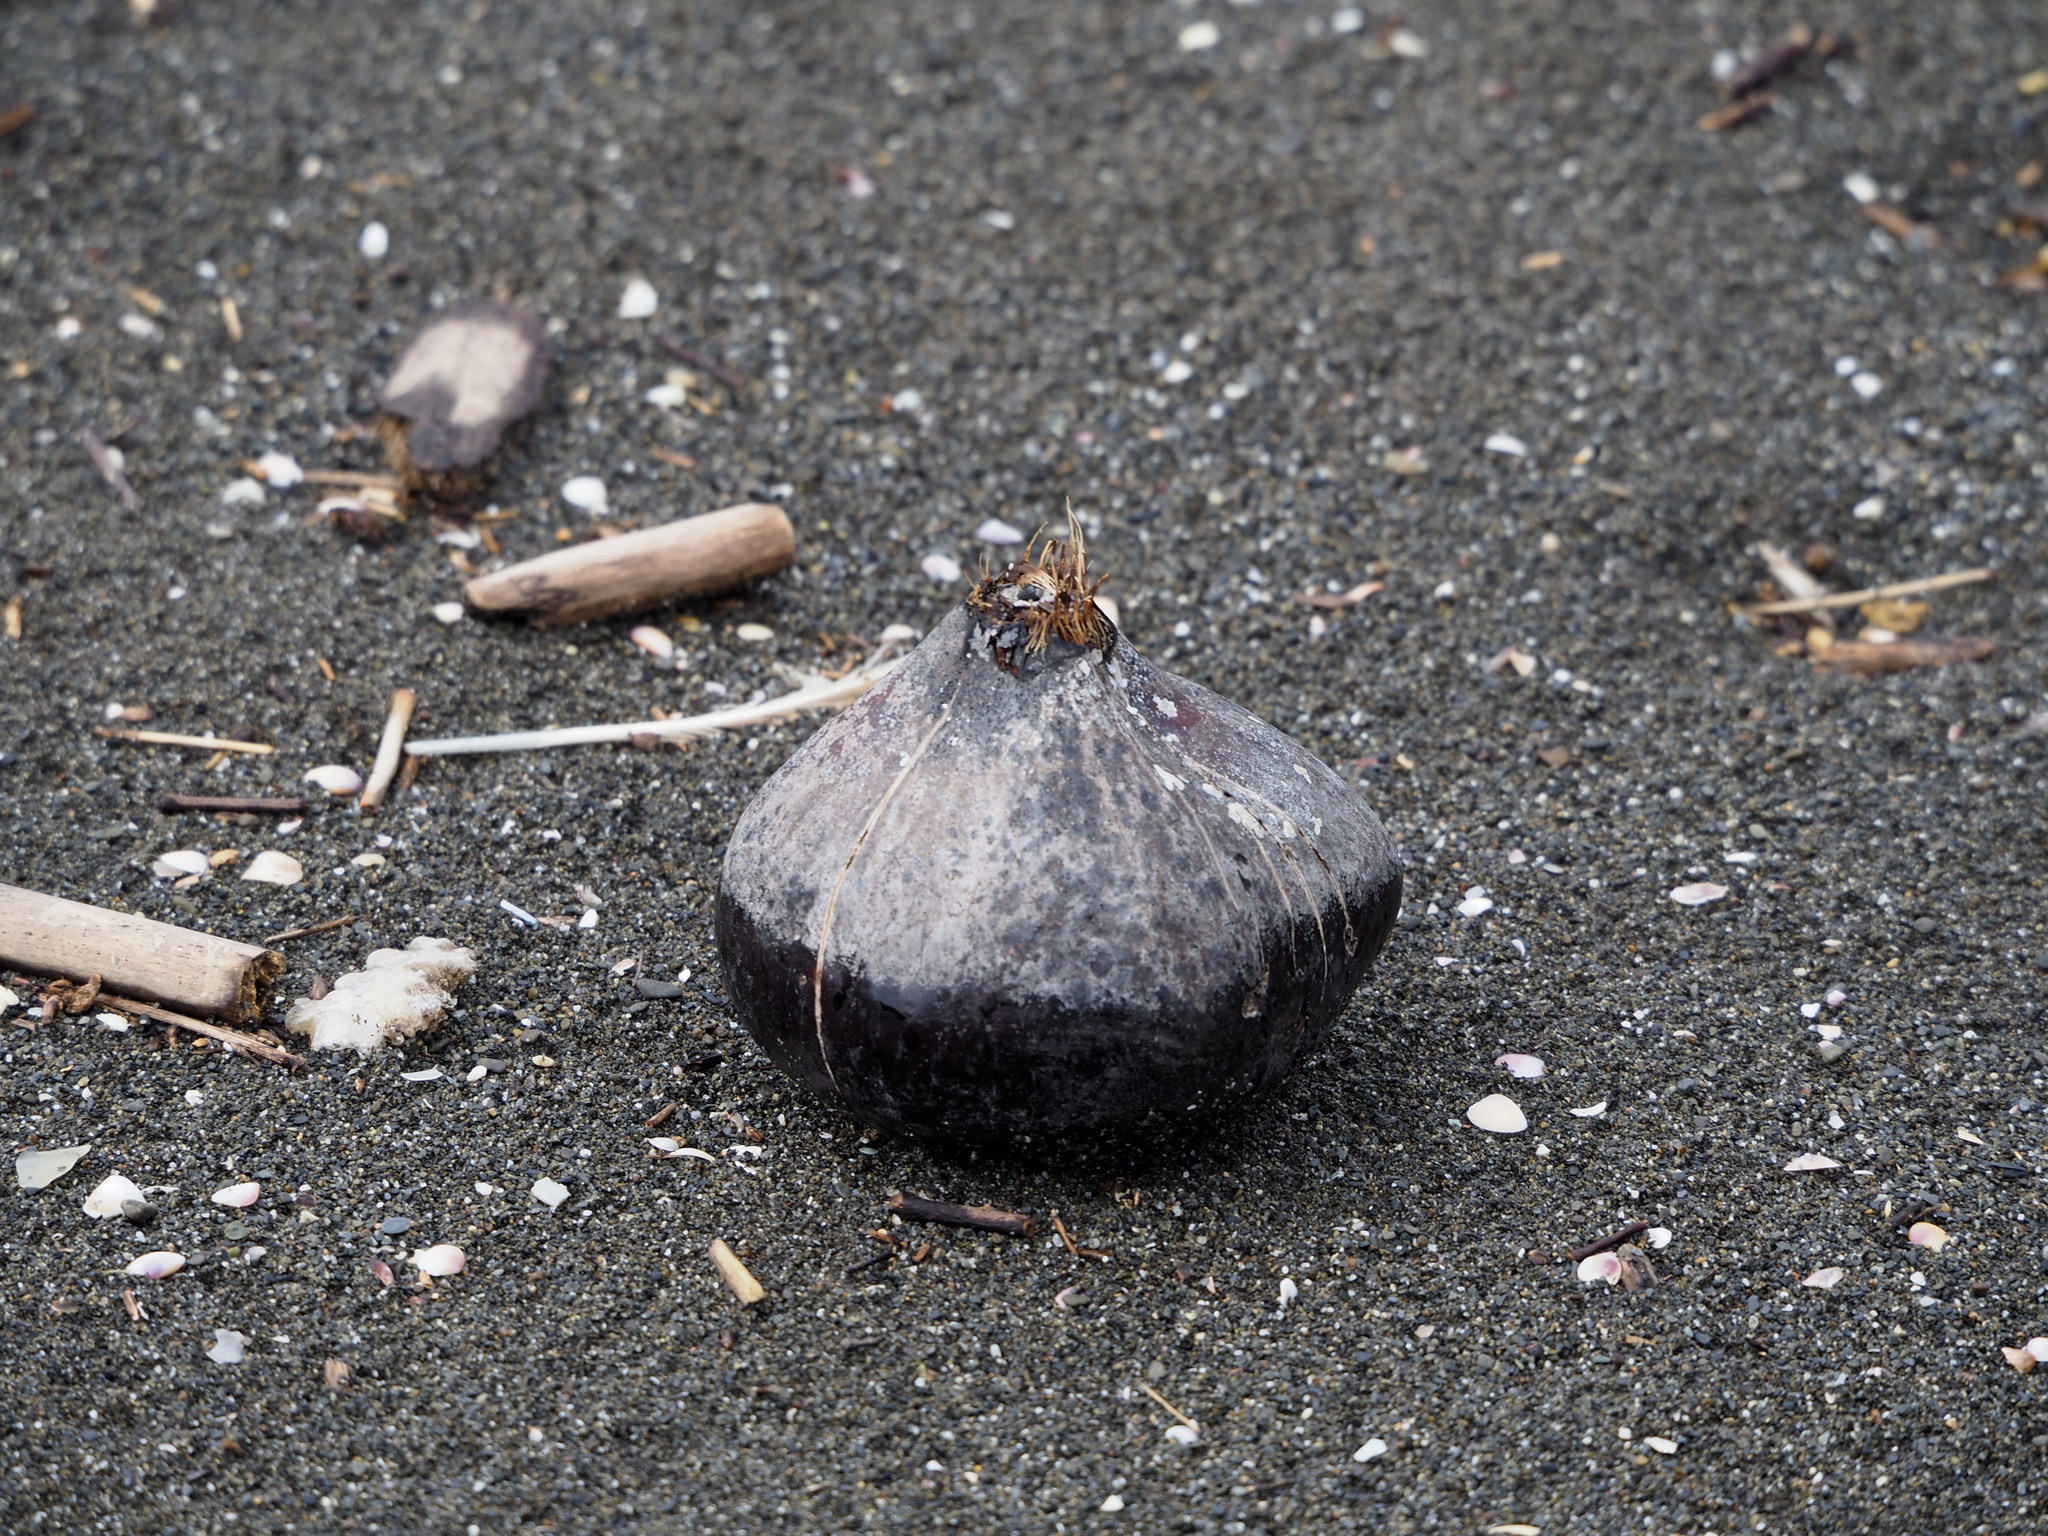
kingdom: Plantae
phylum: Tracheophyta
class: Magnoliopsida
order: Ericales
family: Lecythidaceae
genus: Barringtonia
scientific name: Barringtonia asiatica
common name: Mango-pine
